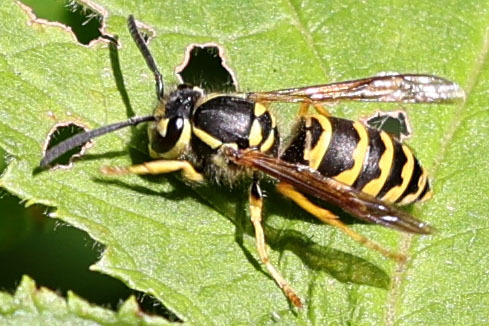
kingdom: Animalia
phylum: Arthropoda
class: Insecta
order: Hymenoptera
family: Vespidae
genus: Vespula
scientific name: Vespula maculifrons
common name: Eastern yellowjacket
